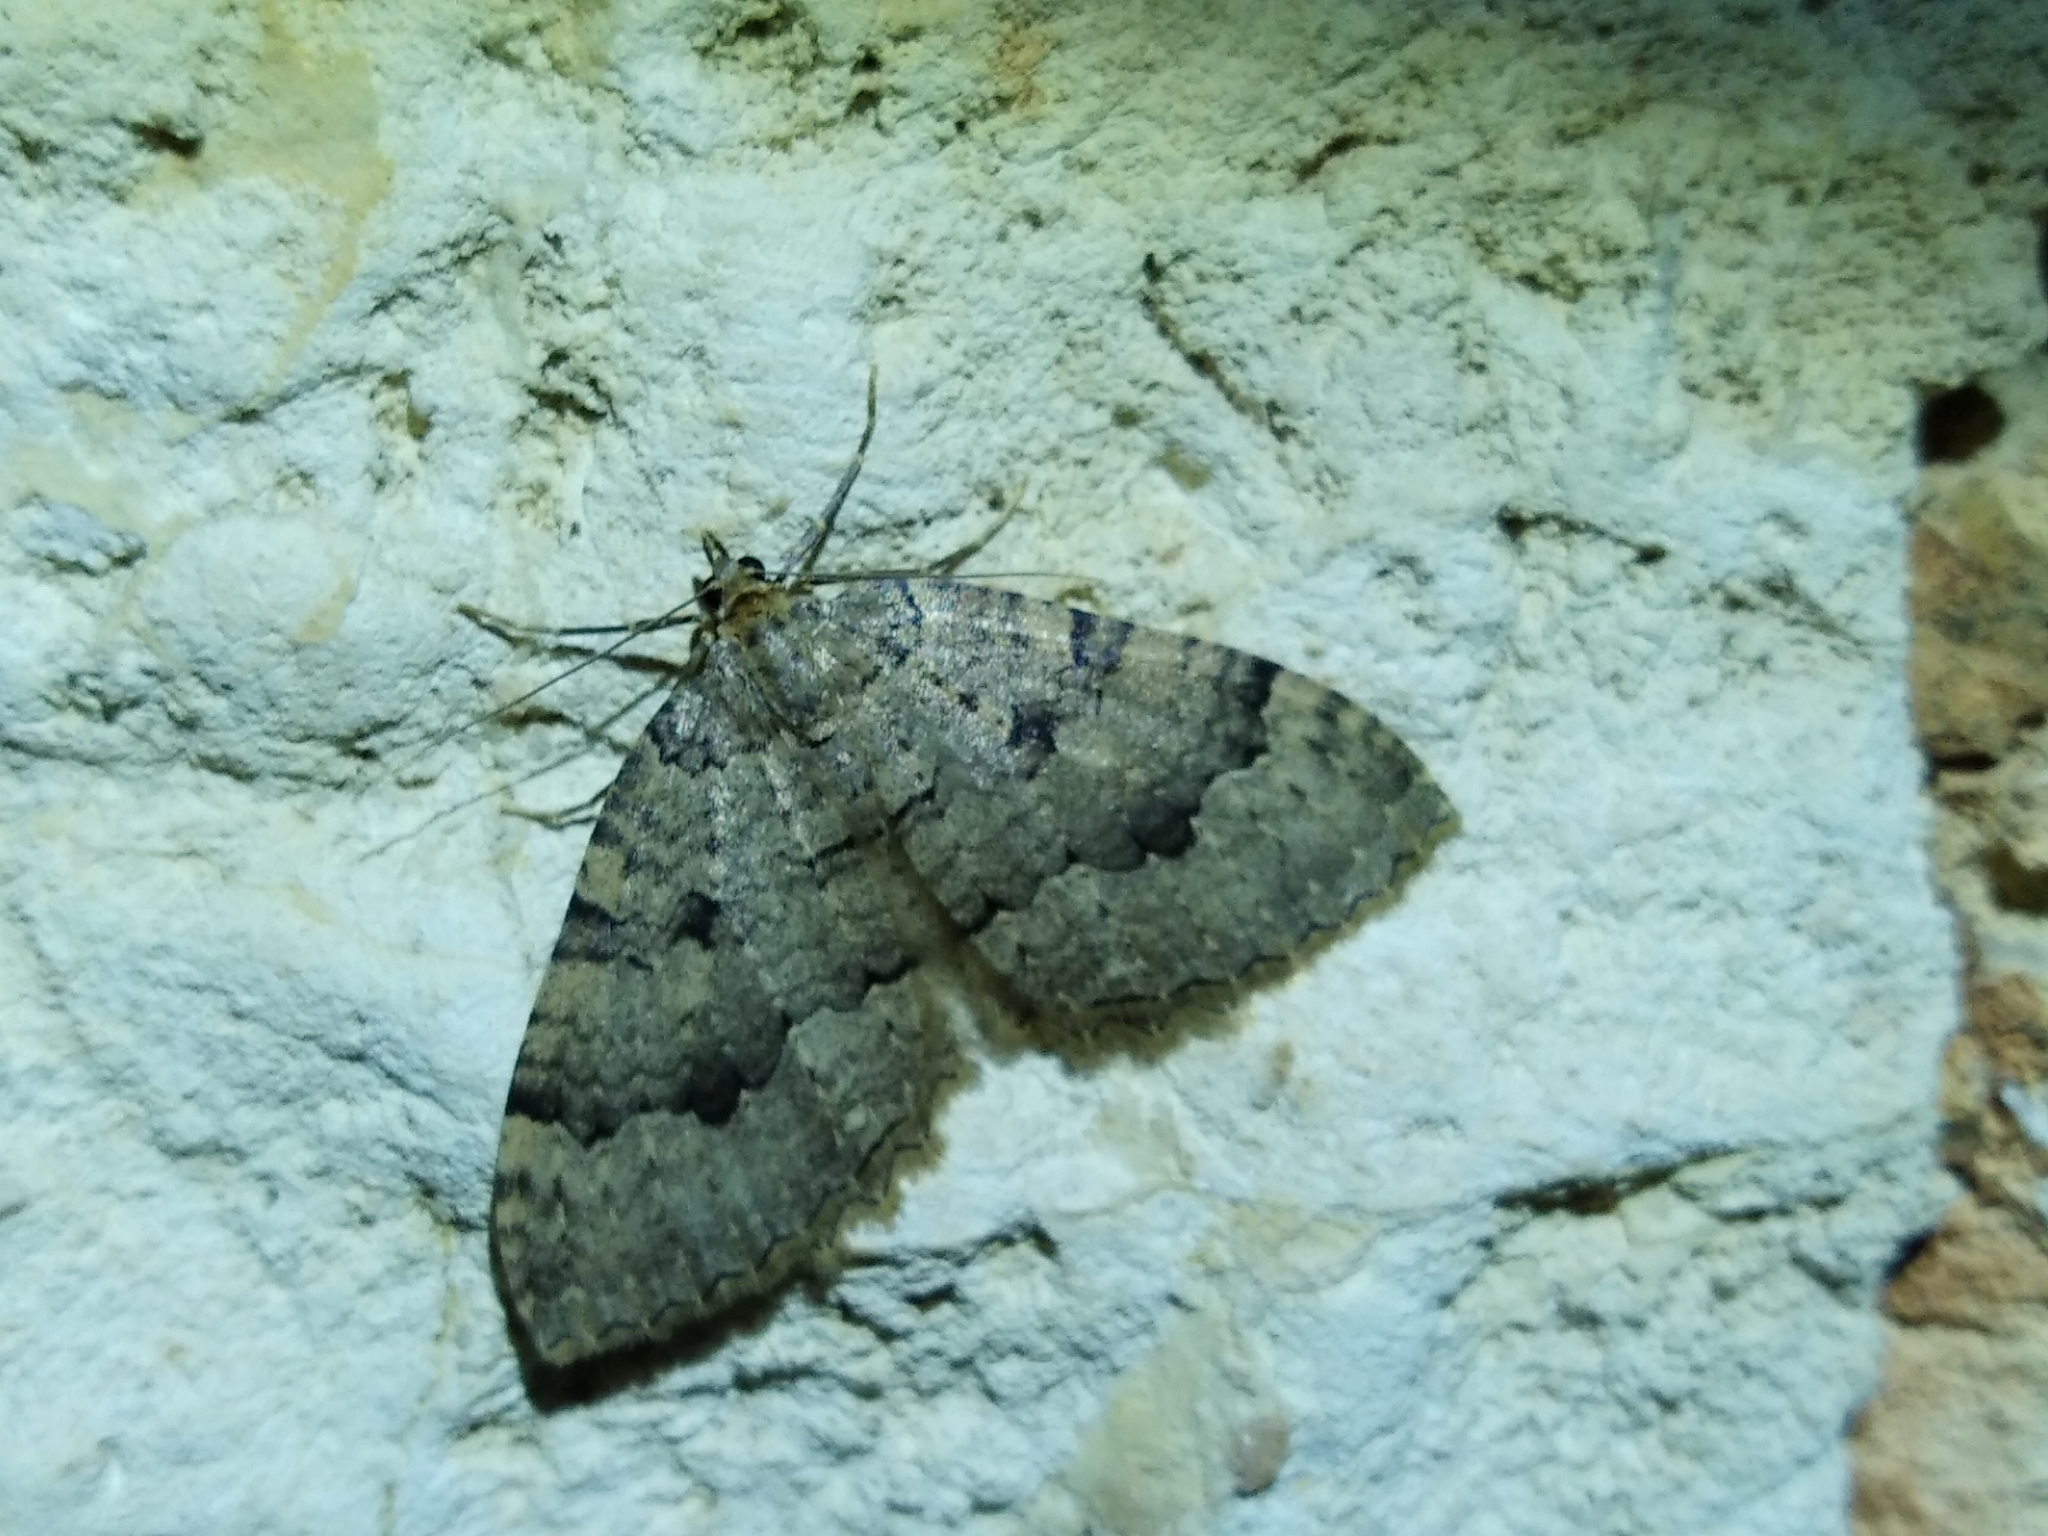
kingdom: Animalia
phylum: Arthropoda
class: Insecta
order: Lepidoptera
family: Geometridae
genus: Triphosa
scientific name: Triphosa dubitata
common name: Tissue
